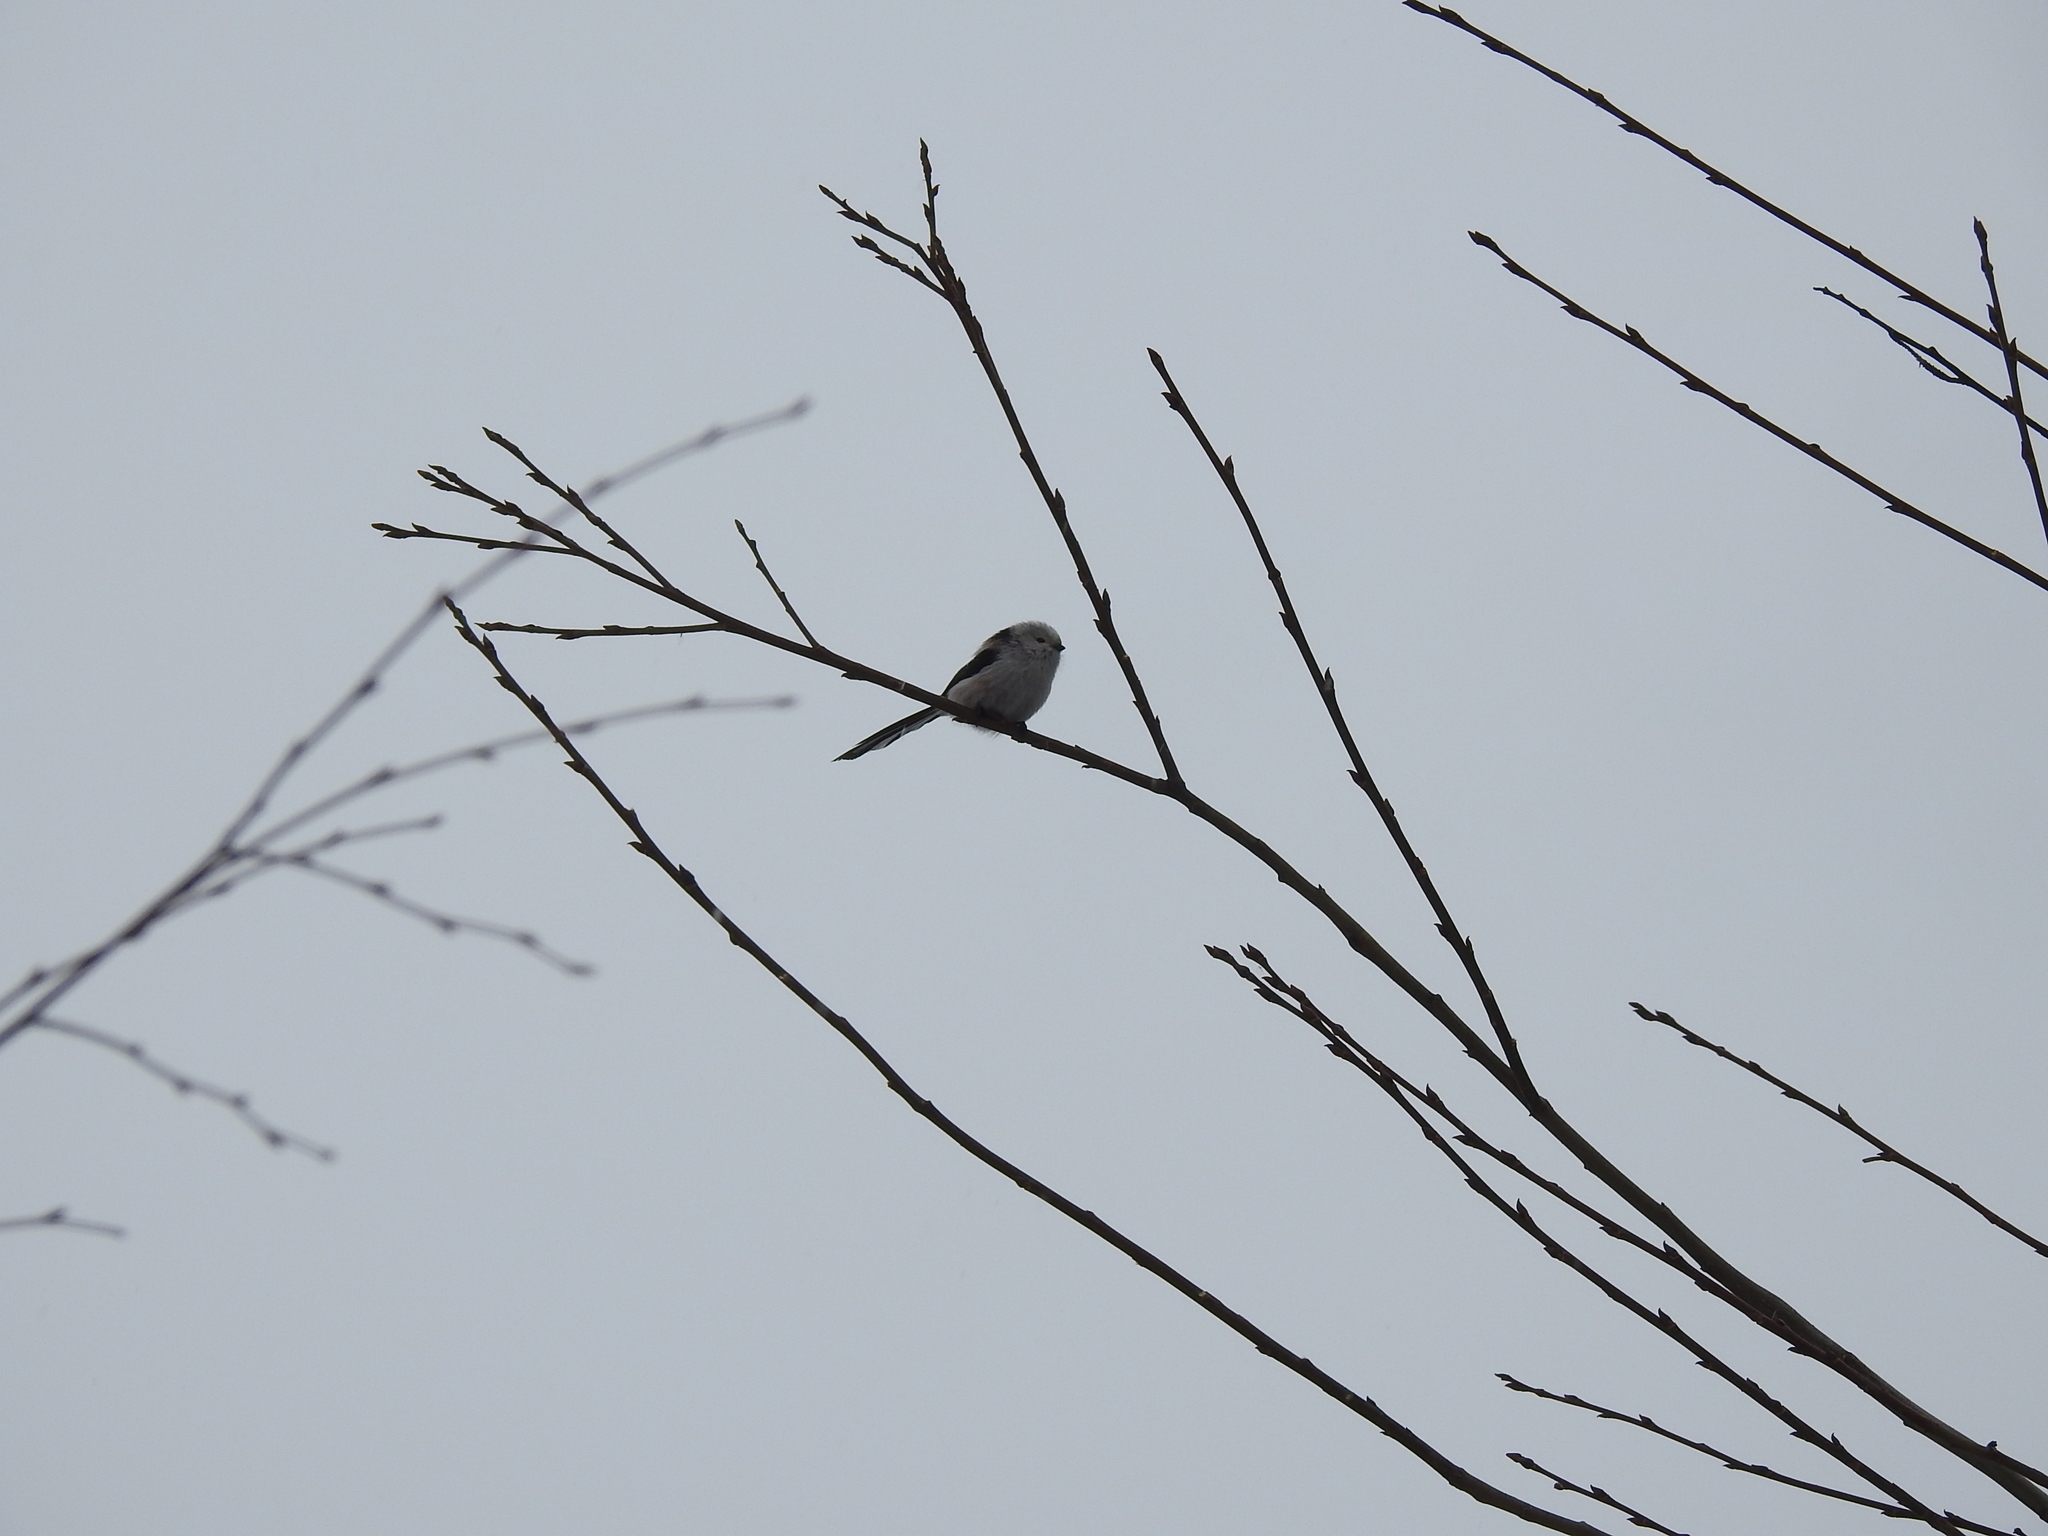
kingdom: Animalia
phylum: Chordata
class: Aves
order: Passeriformes
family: Aegithalidae
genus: Aegithalos
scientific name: Aegithalos caudatus
